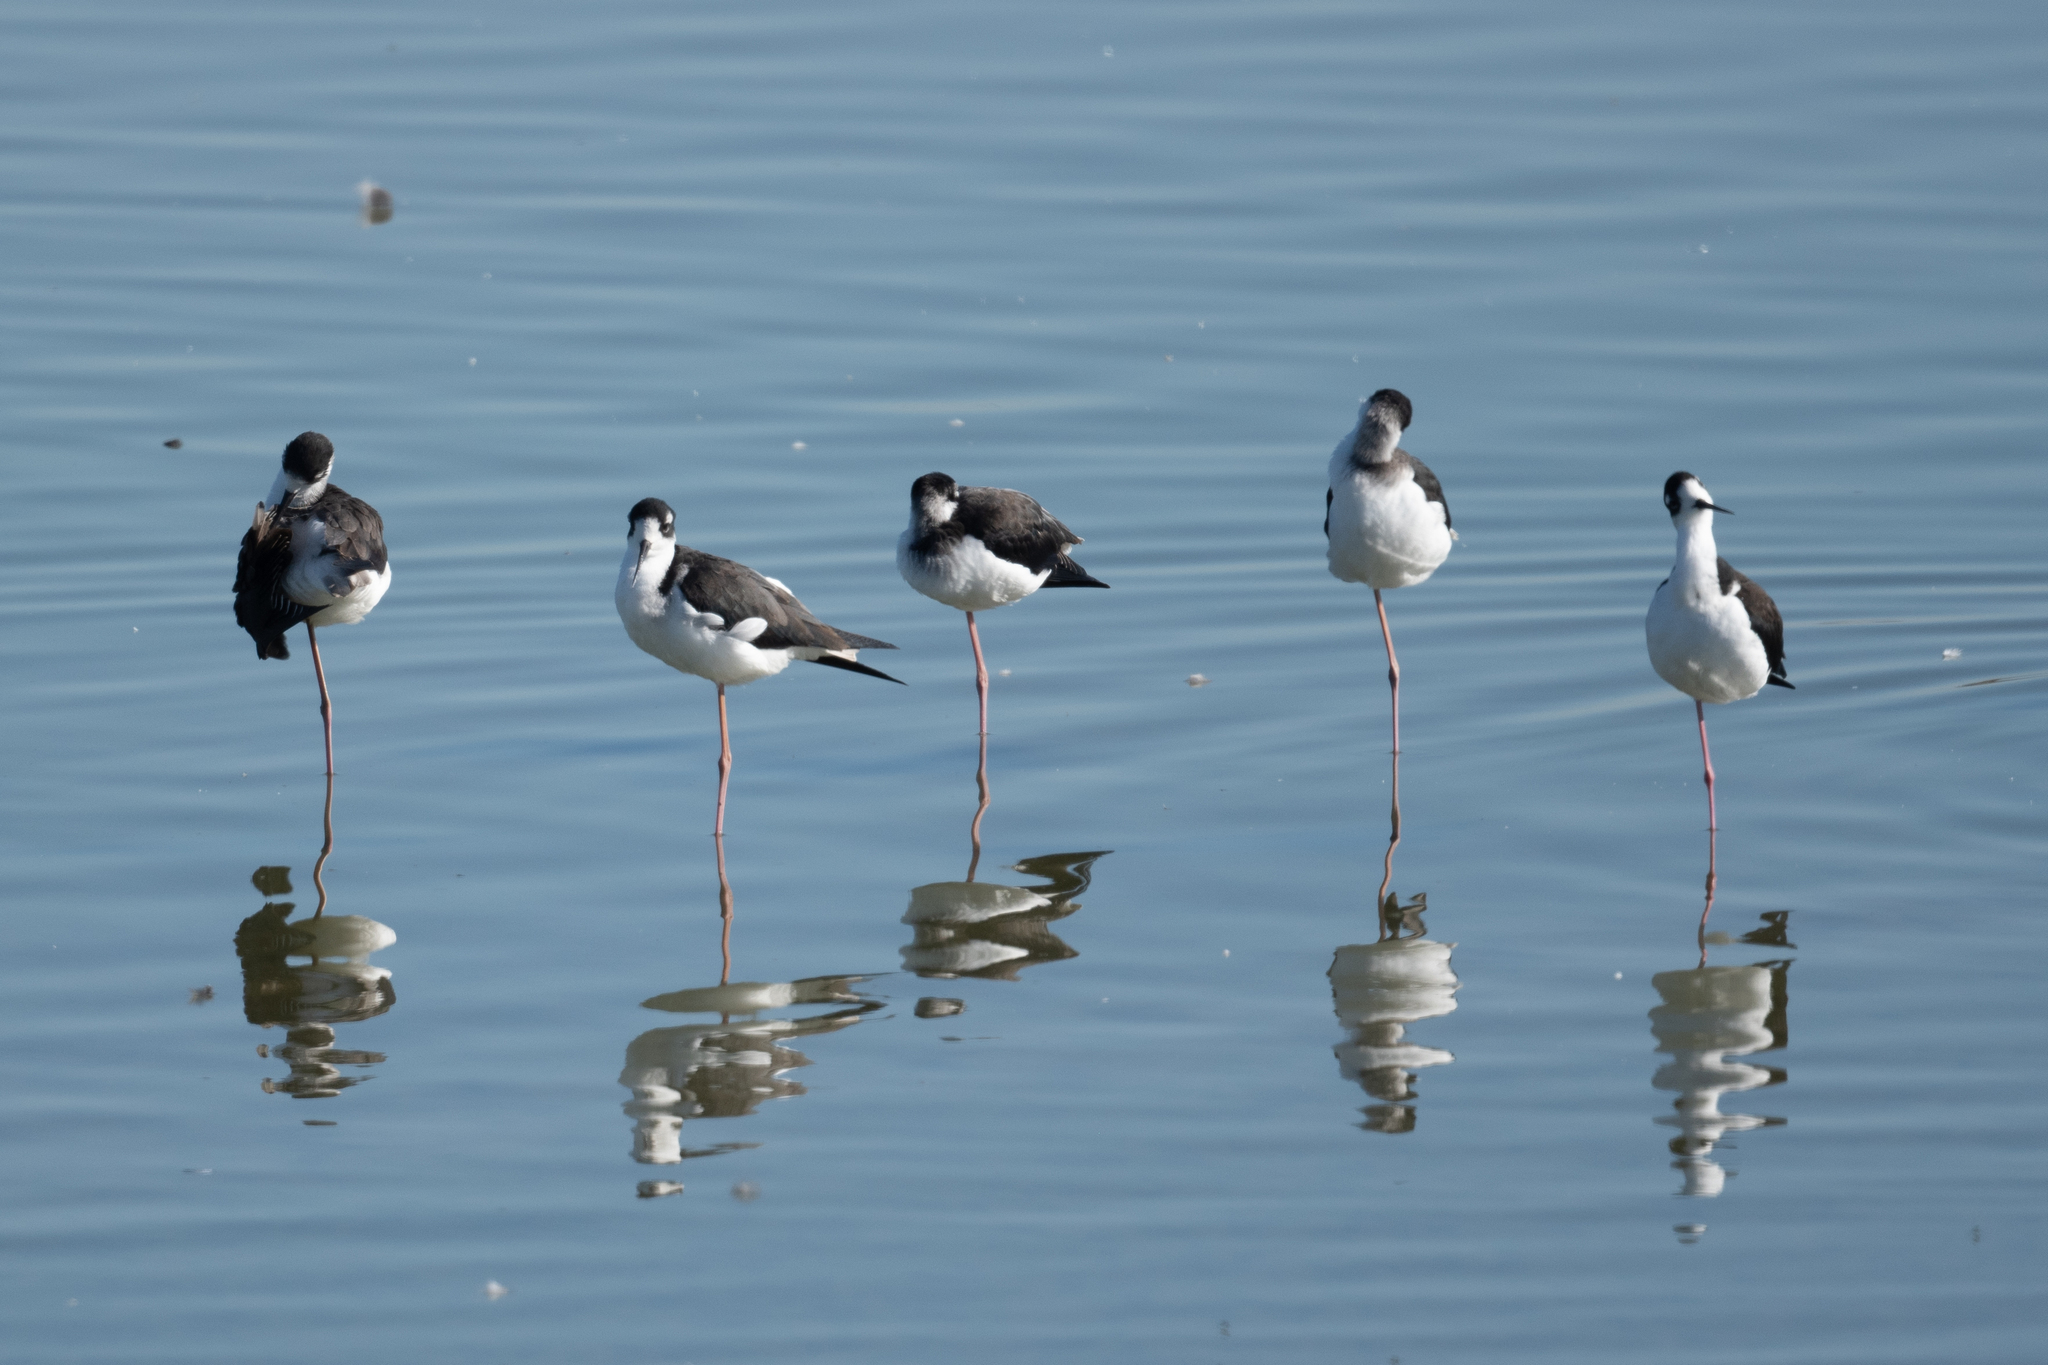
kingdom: Animalia
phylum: Chordata
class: Aves
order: Charadriiformes
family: Recurvirostridae
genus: Himantopus
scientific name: Himantopus mexicanus
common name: Black-necked stilt
